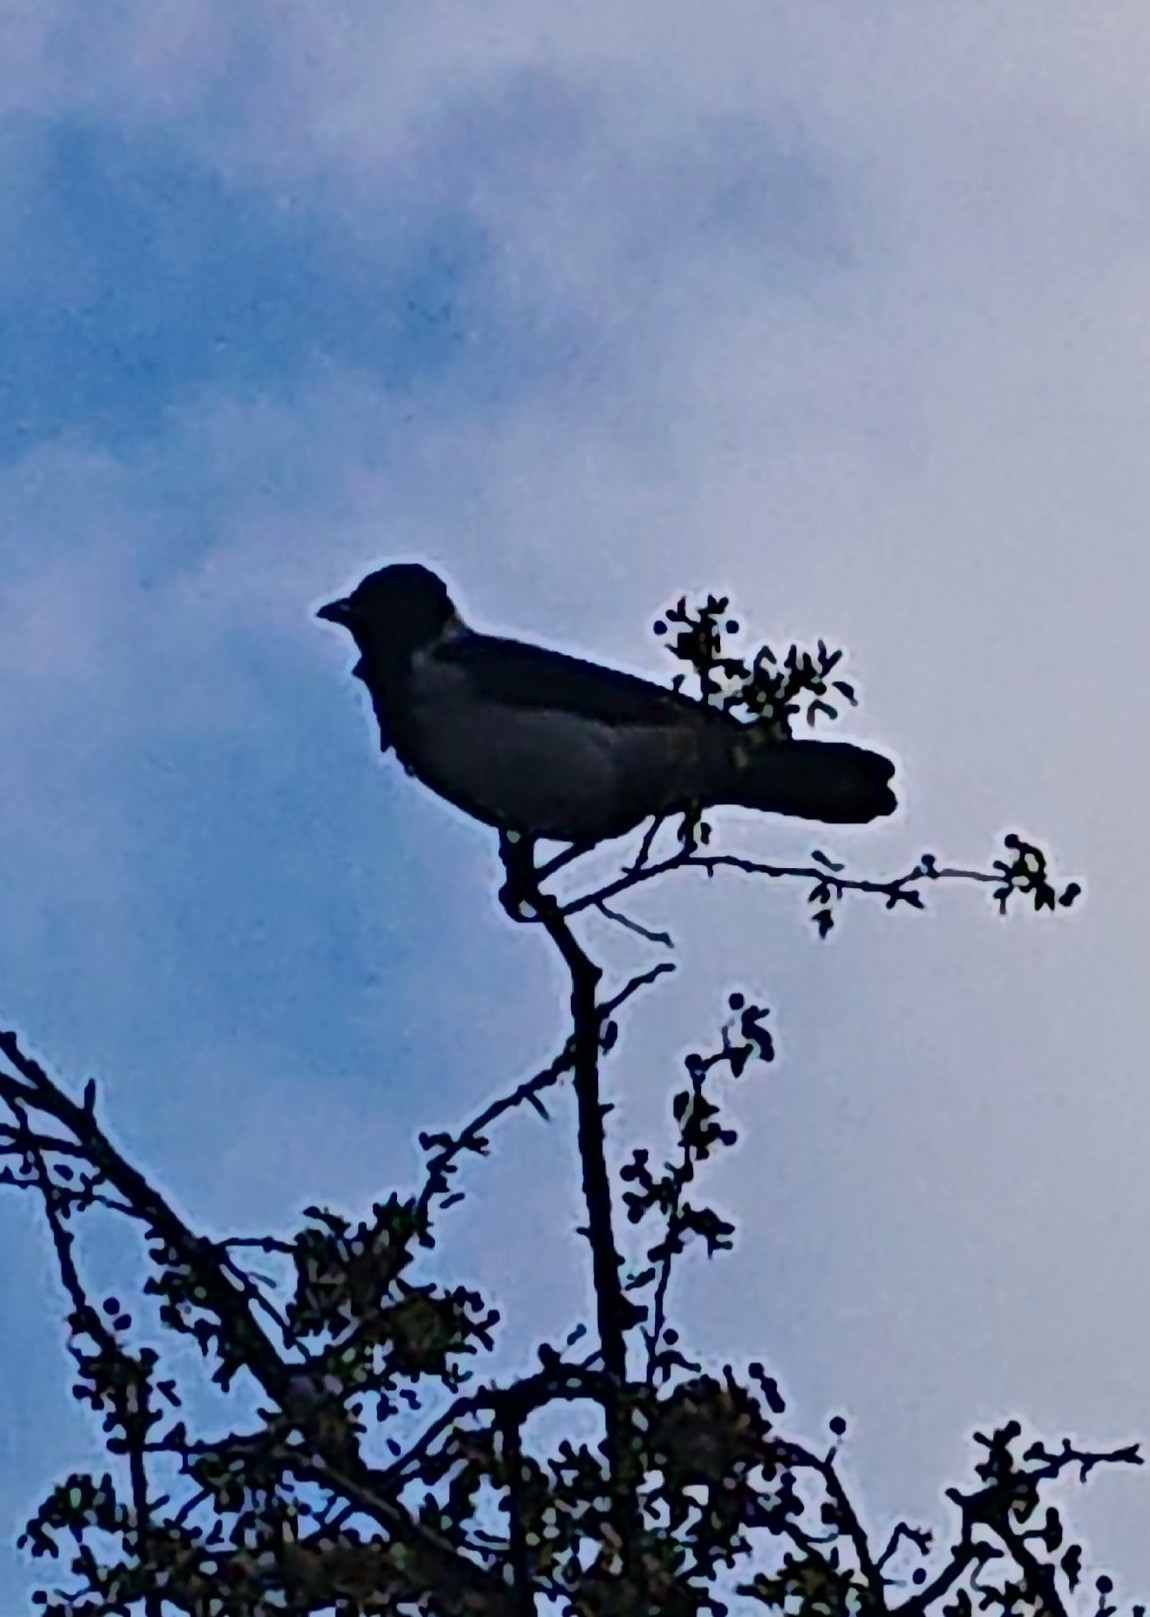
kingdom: Animalia
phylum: Chordata
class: Aves
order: Passeriformes
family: Corvidae
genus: Corvus
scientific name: Corvus cornix
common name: Hooded crow
